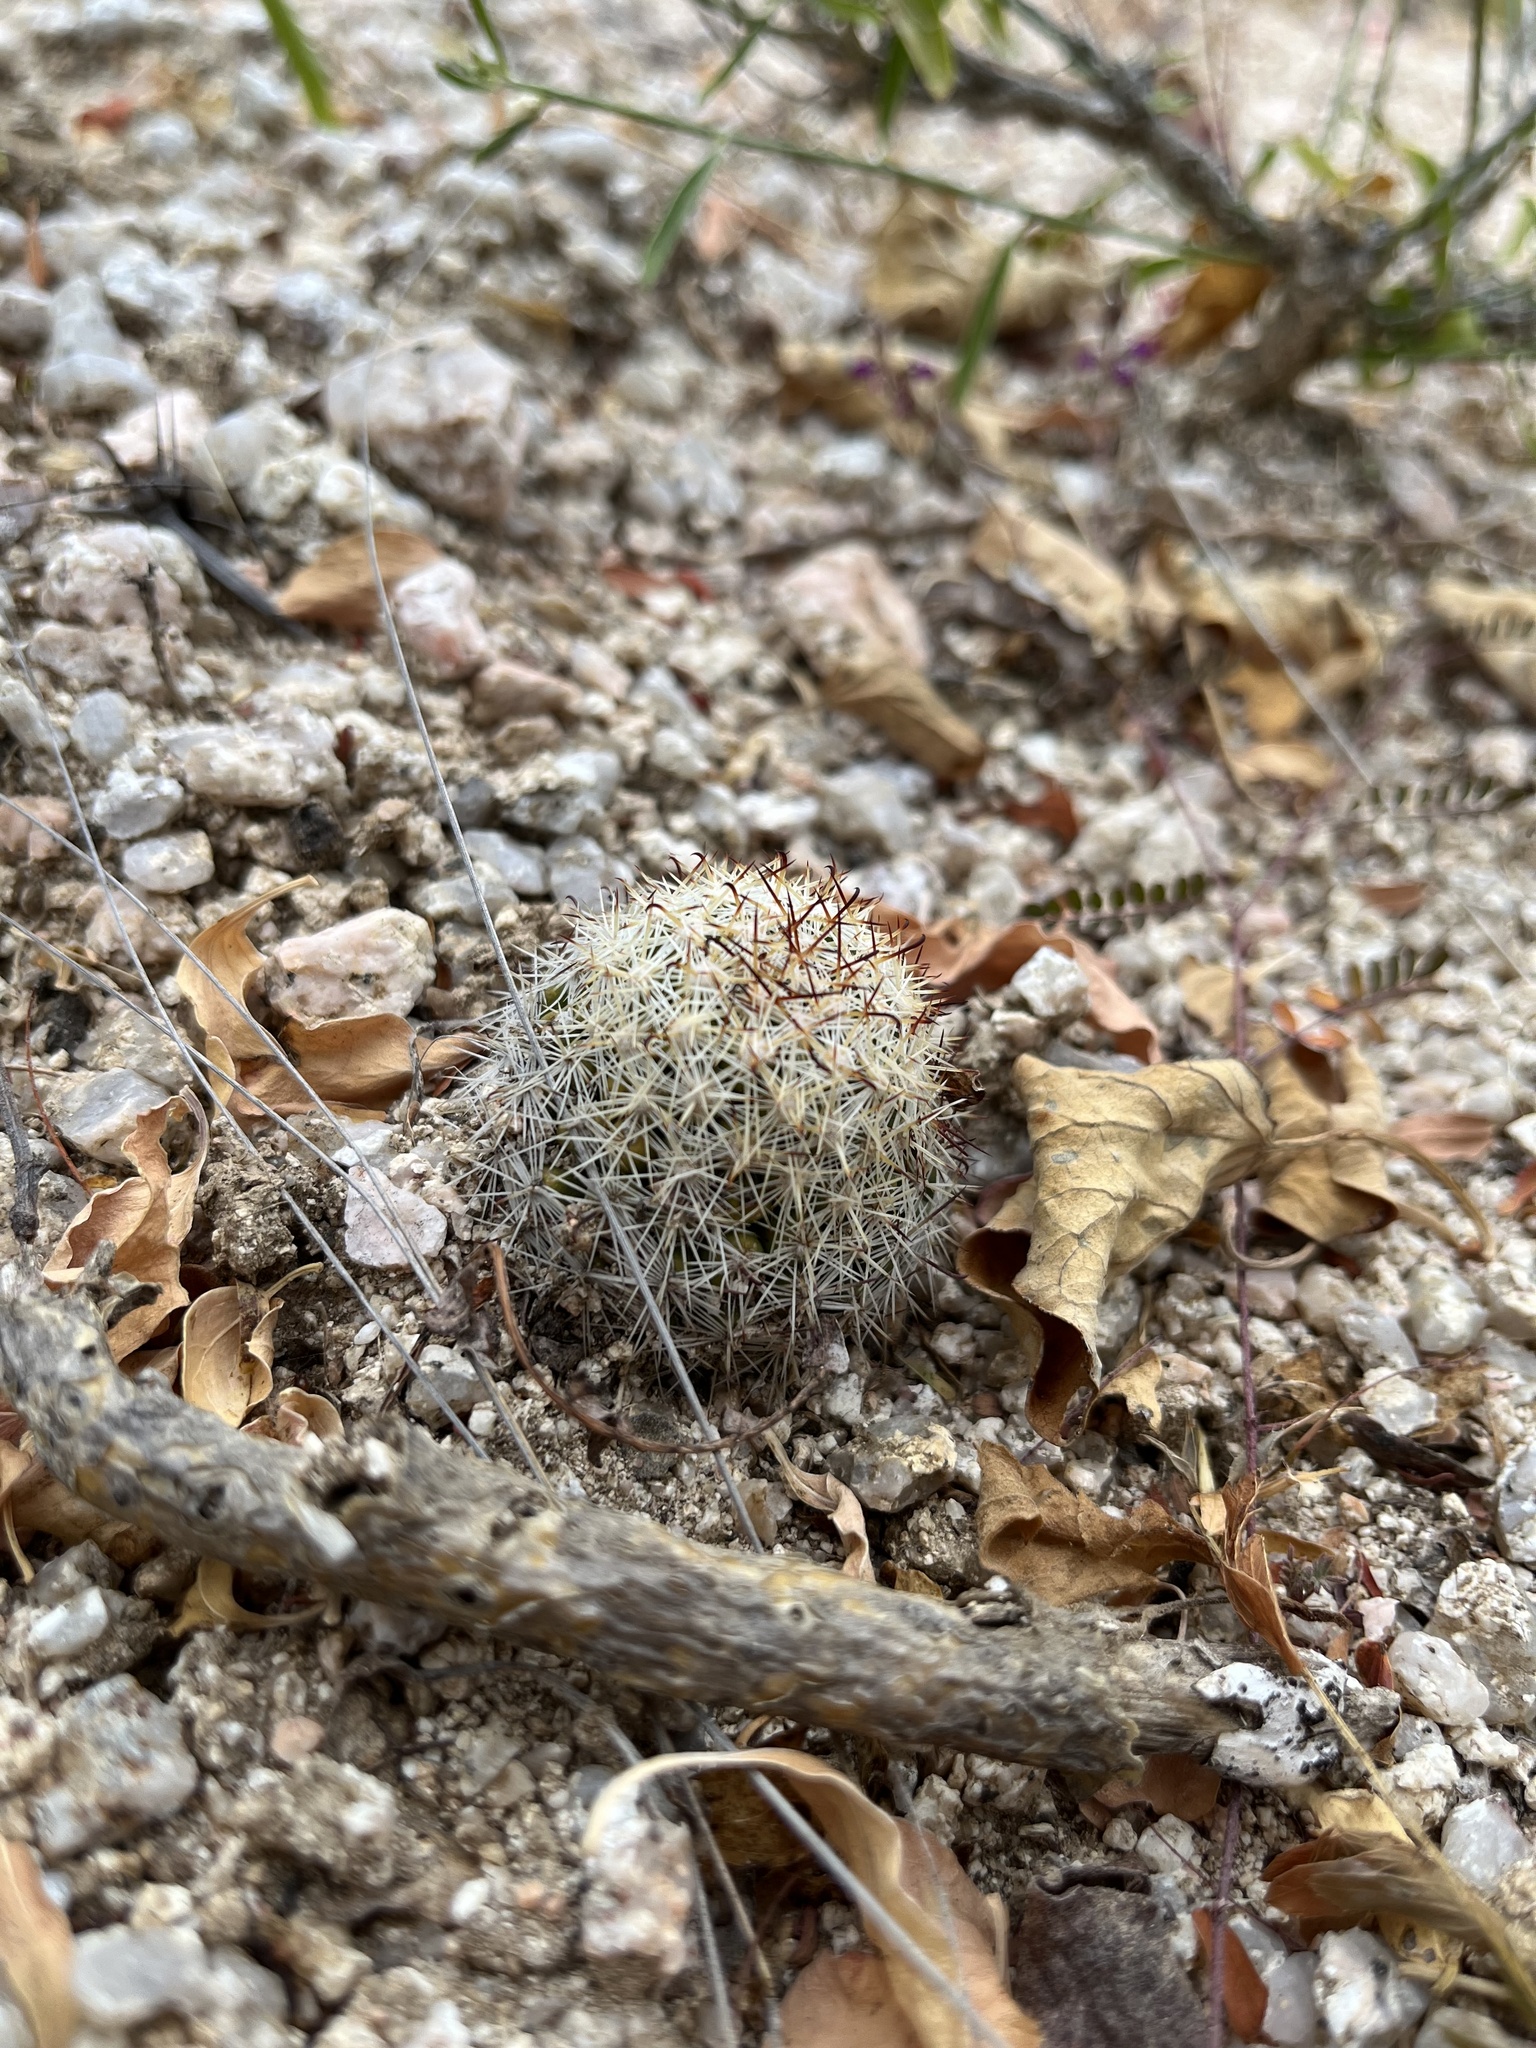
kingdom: Plantae
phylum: Tracheophyta
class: Magnoliopsida
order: Caryophyllales
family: Cactaceae
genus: Cochemiea
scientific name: Cochemiea armillata
